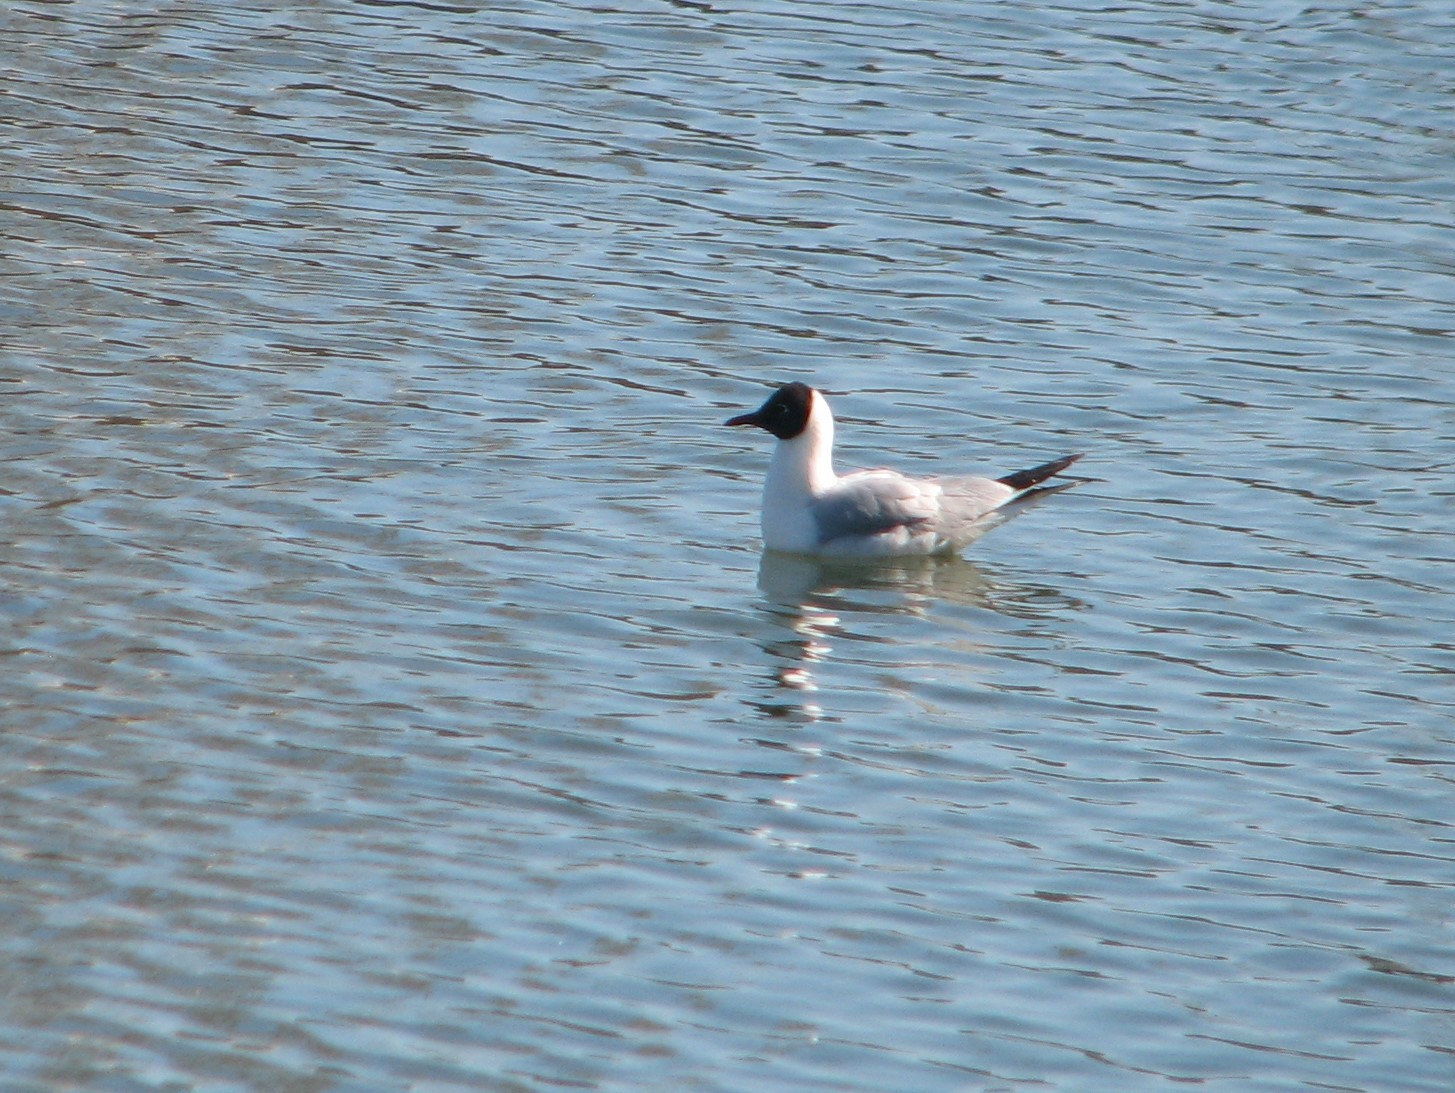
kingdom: Animalia
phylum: Chordata
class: Aves
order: Charadriiformes
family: Laridae
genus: Chroicocephalus
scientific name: Chroicocephalus ridibundus
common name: Black-headed gull
